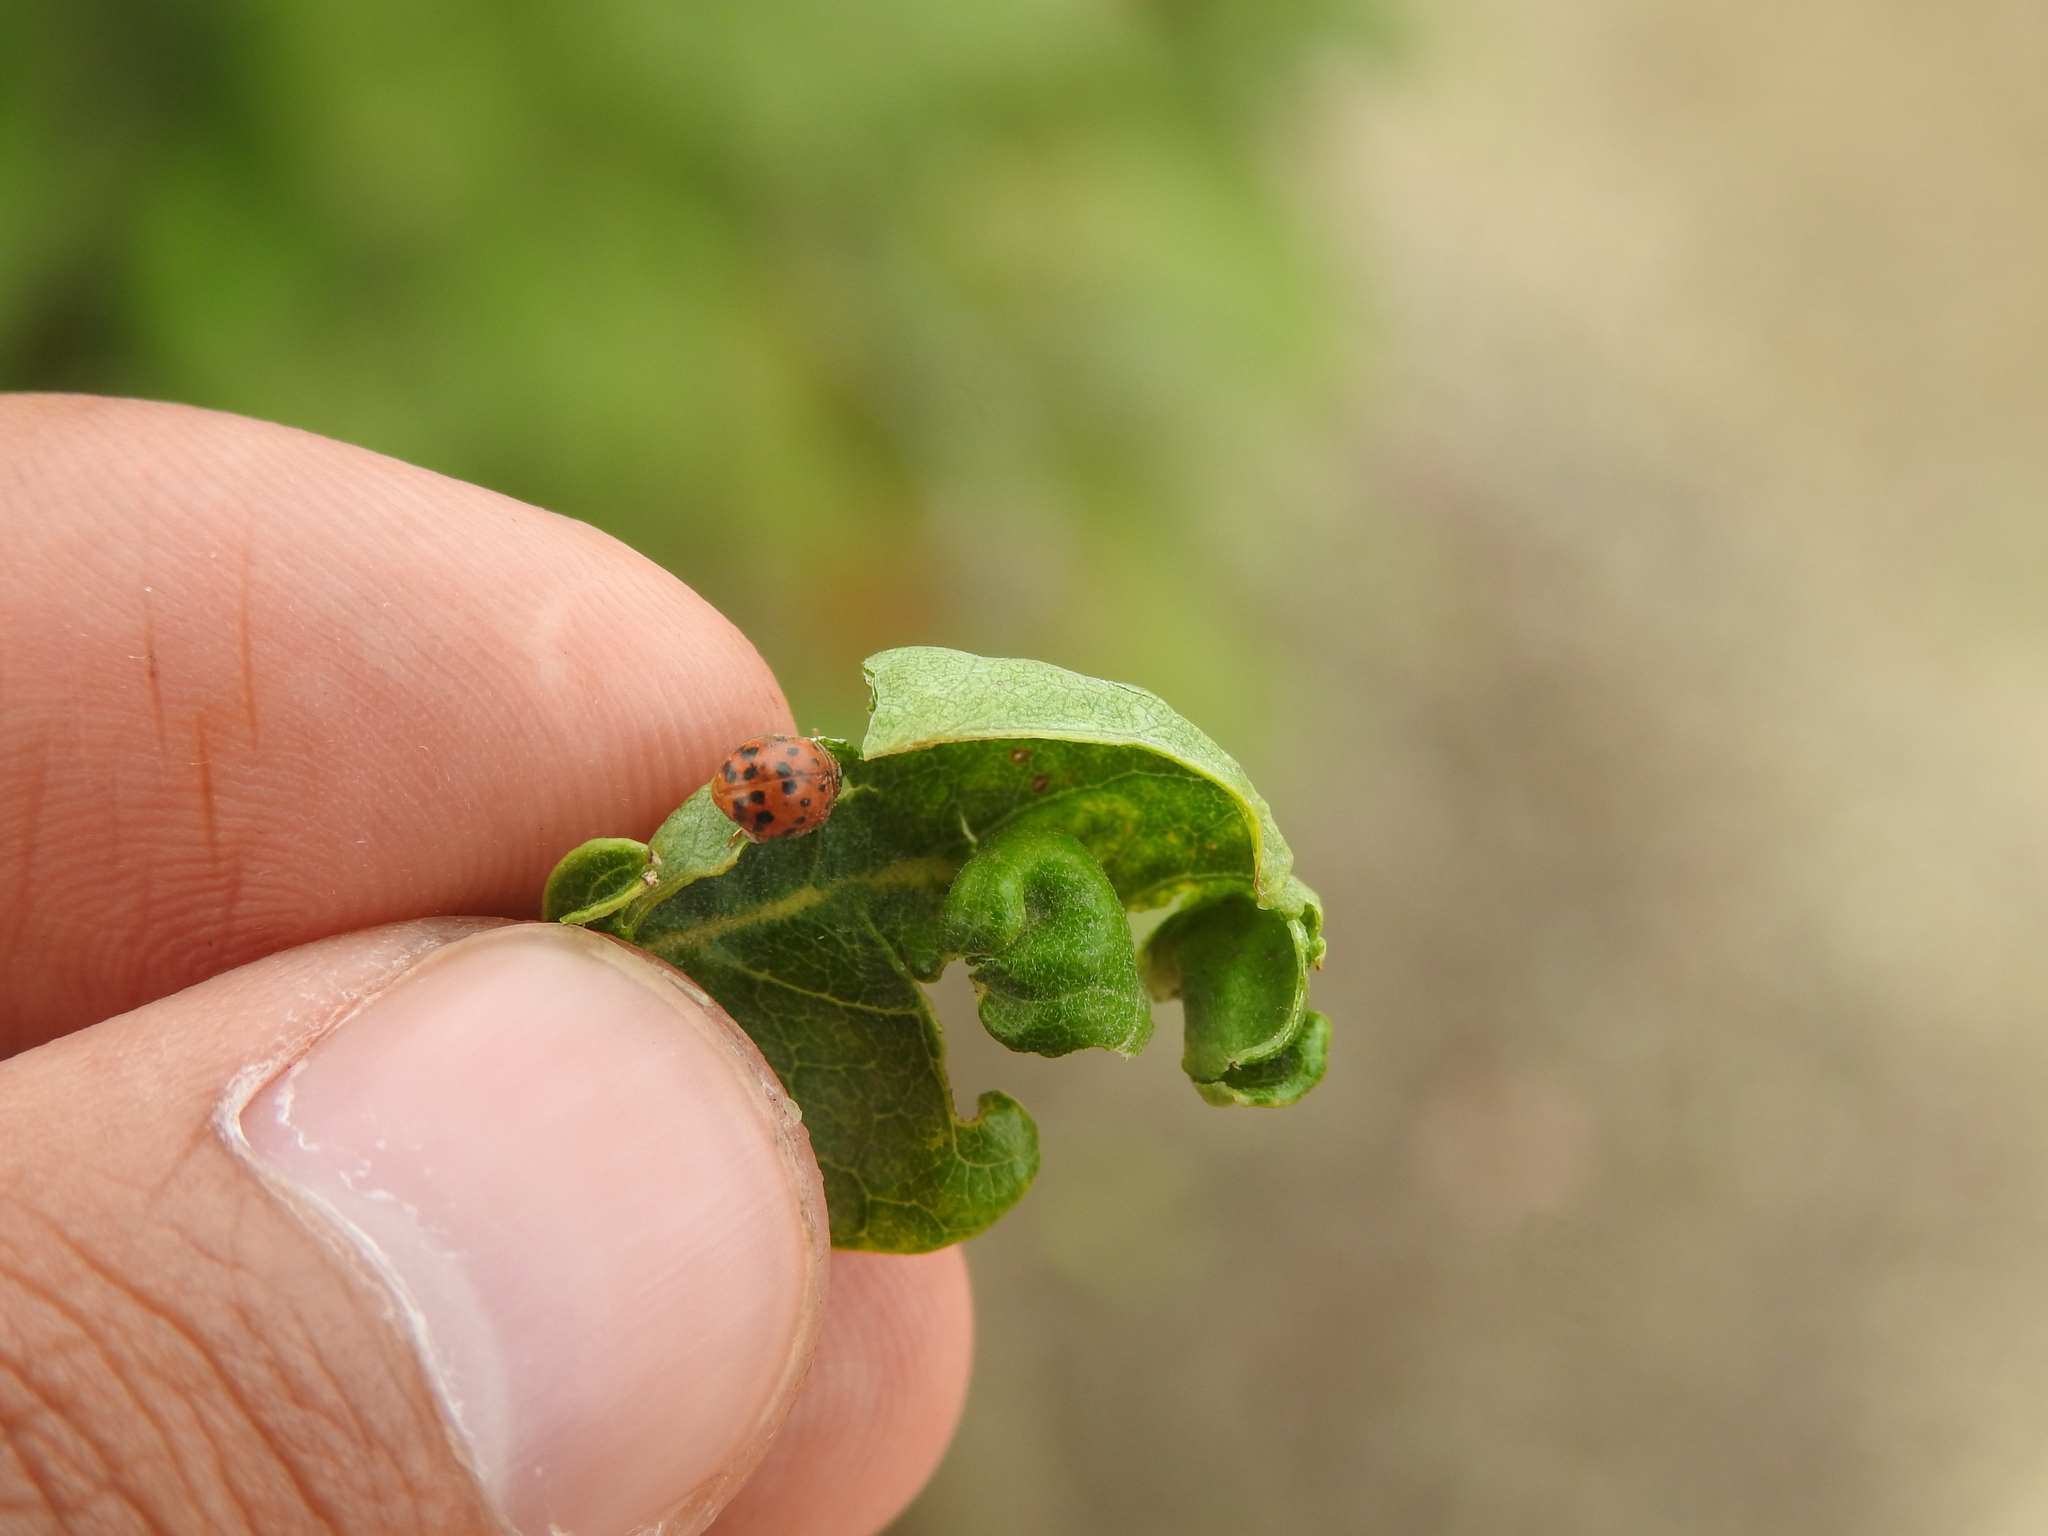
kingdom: Animalia
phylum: Arthropoda
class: Insecta
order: Coleoptera
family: Coccinellidae
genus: Subcoccinella
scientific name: Subcoccinella vigintiquatuorpunctata
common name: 24-spot ladybird
